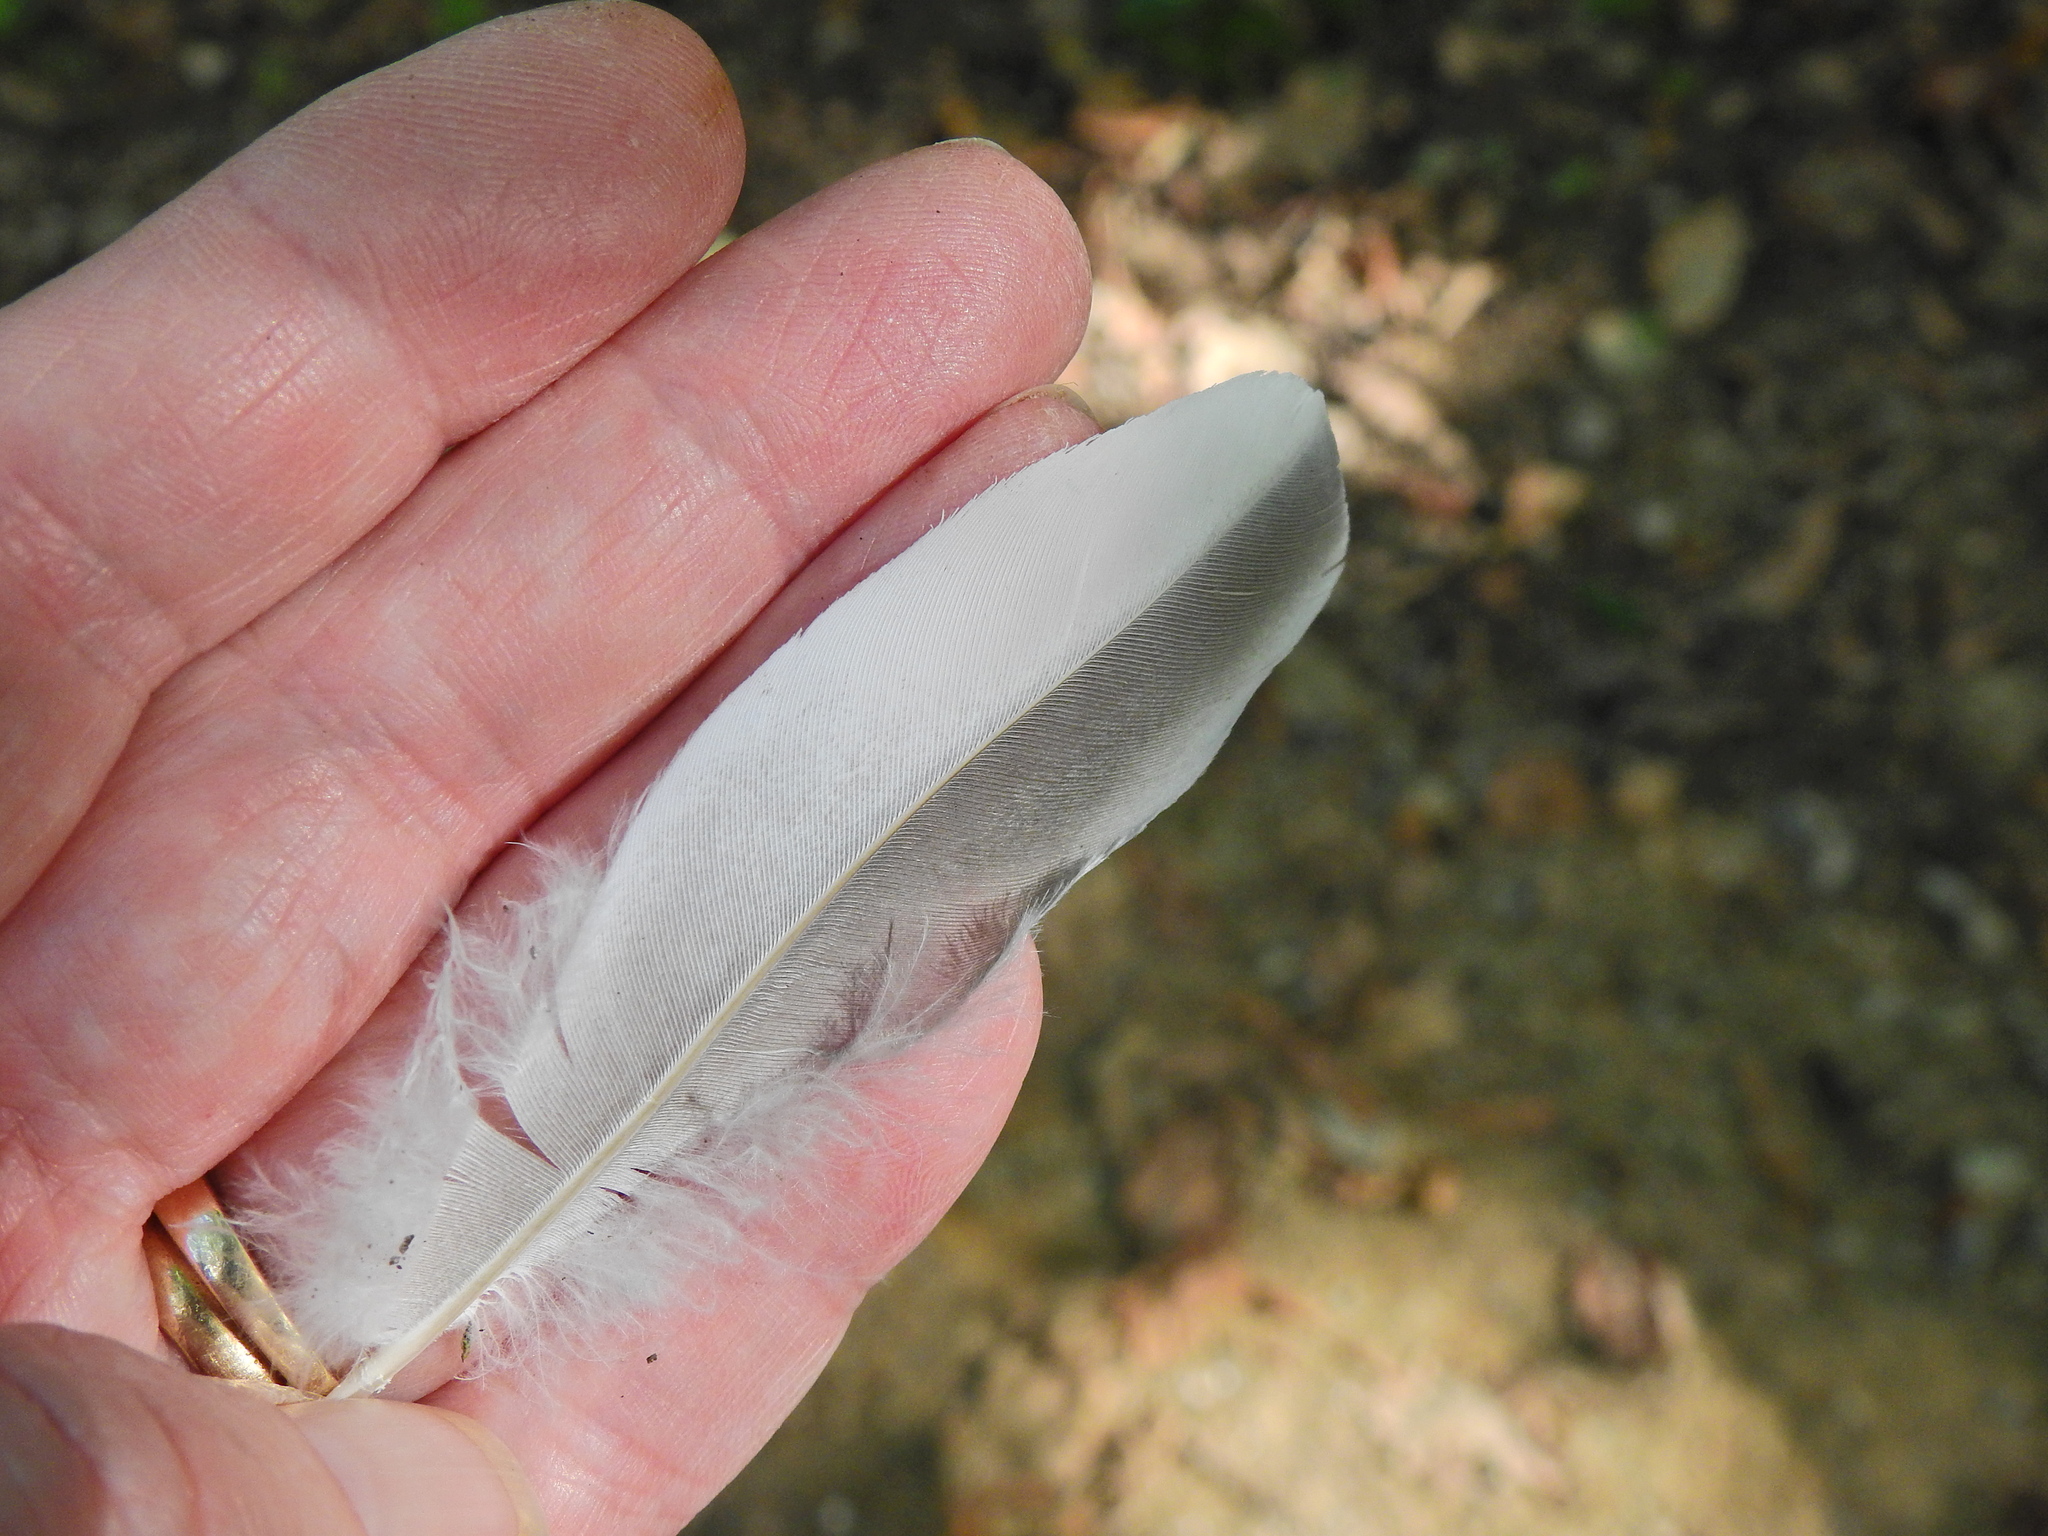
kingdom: Animalia
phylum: Chordata
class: Aves
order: Columbiformes
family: Columbidae
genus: Columba
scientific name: Columba palumbus
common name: Common wood pigeon
